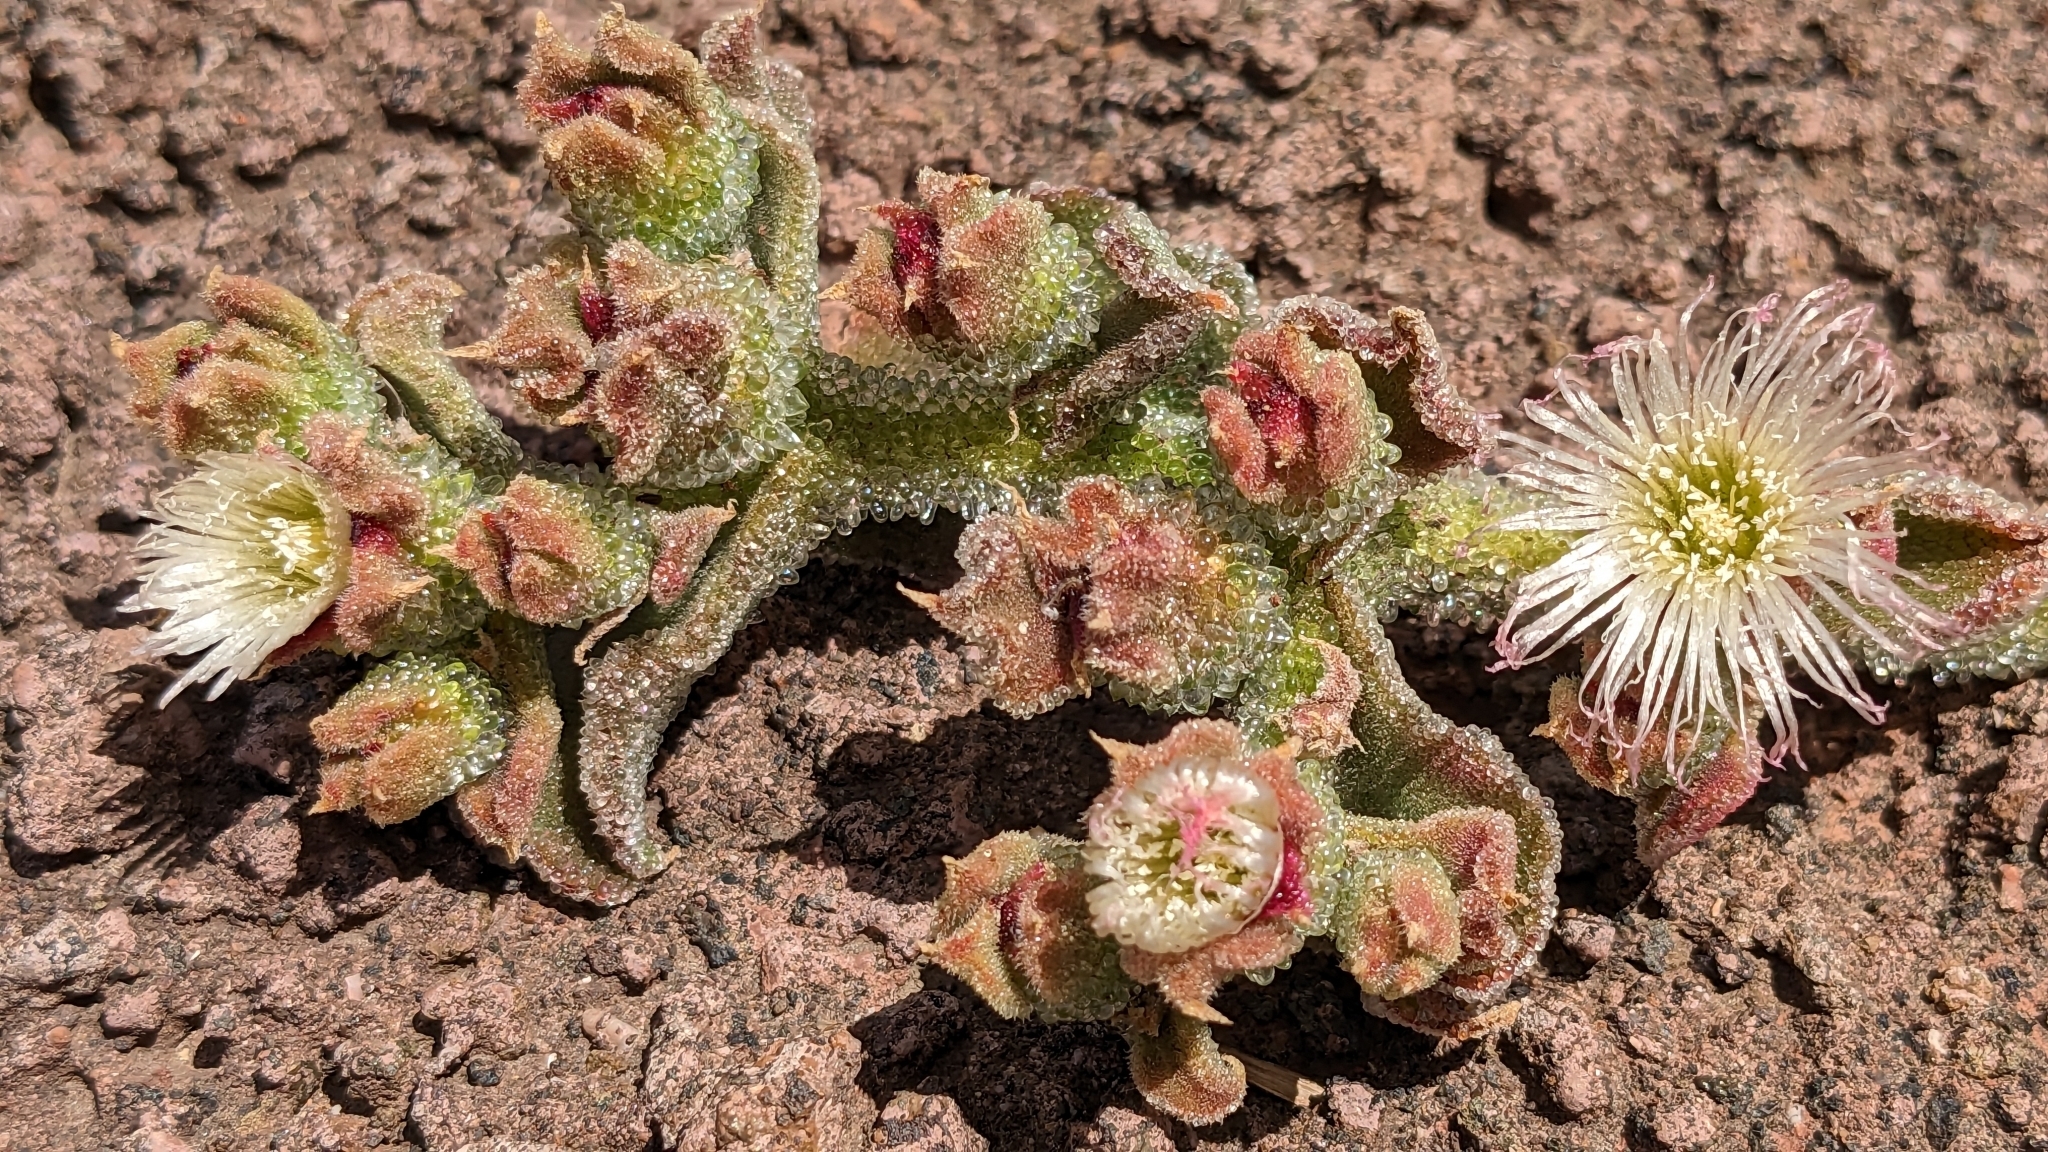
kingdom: Plantae
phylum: Tracheophyta
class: Magnoliopsida
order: Caryophyllales
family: Aizoaceae
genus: Mesembryanthemum
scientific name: Mesembryanthemum crystallinum
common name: Common iceplant
